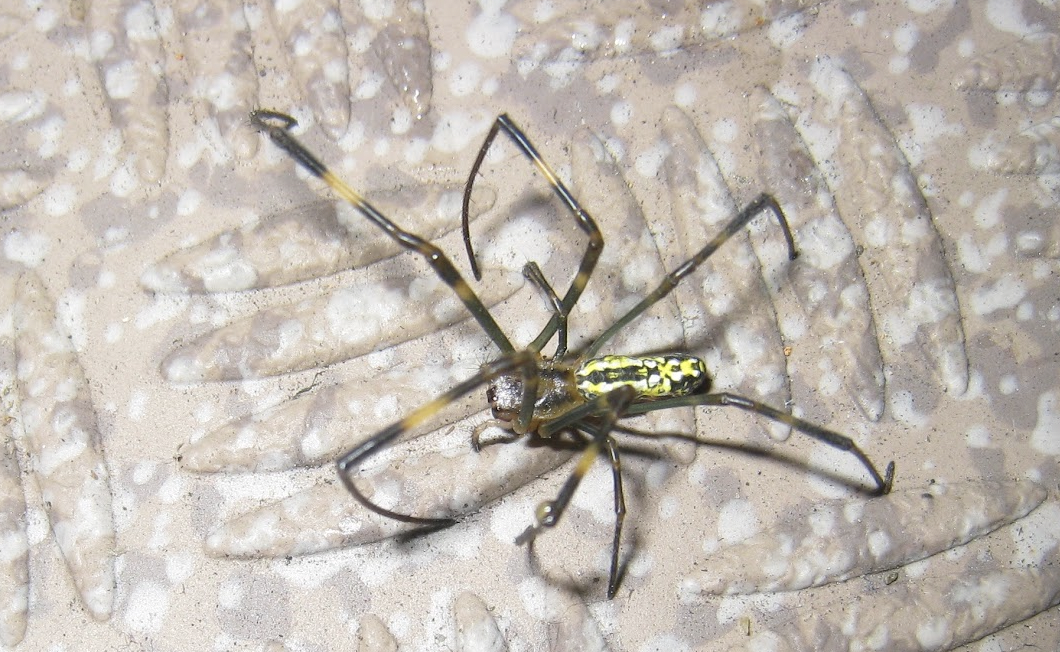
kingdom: Animalia
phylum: Arthropoda
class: Arachnida
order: Araneae
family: Araneidae
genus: Trichonephila
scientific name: Trichonephila clavata
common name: Jorō spider
